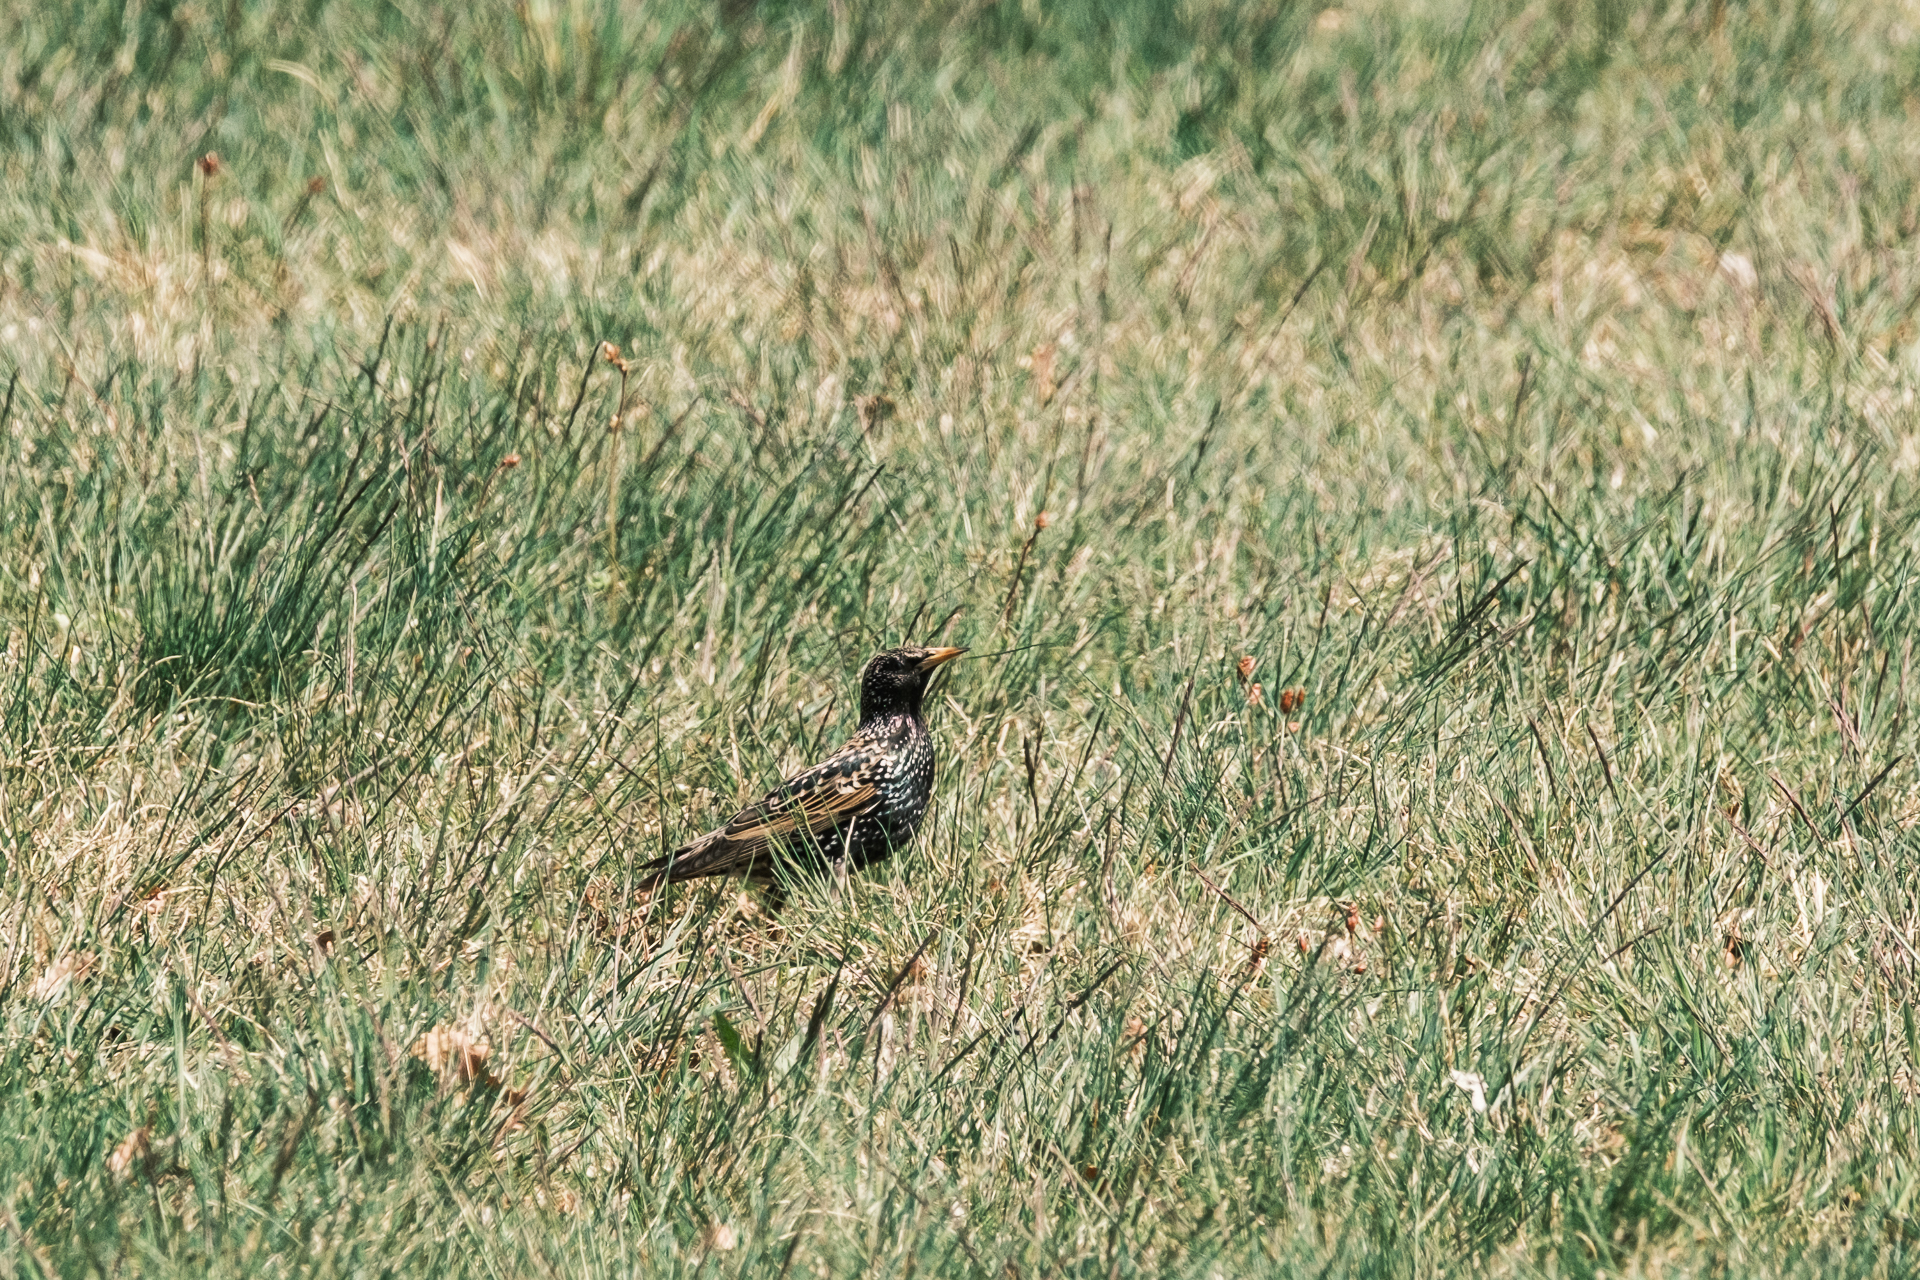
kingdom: Animalia
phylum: Chordata
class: Aves
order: Passeriformes
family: Sturnidae
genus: Sturnus
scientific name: Sturnus vulgaris
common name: Common starling
